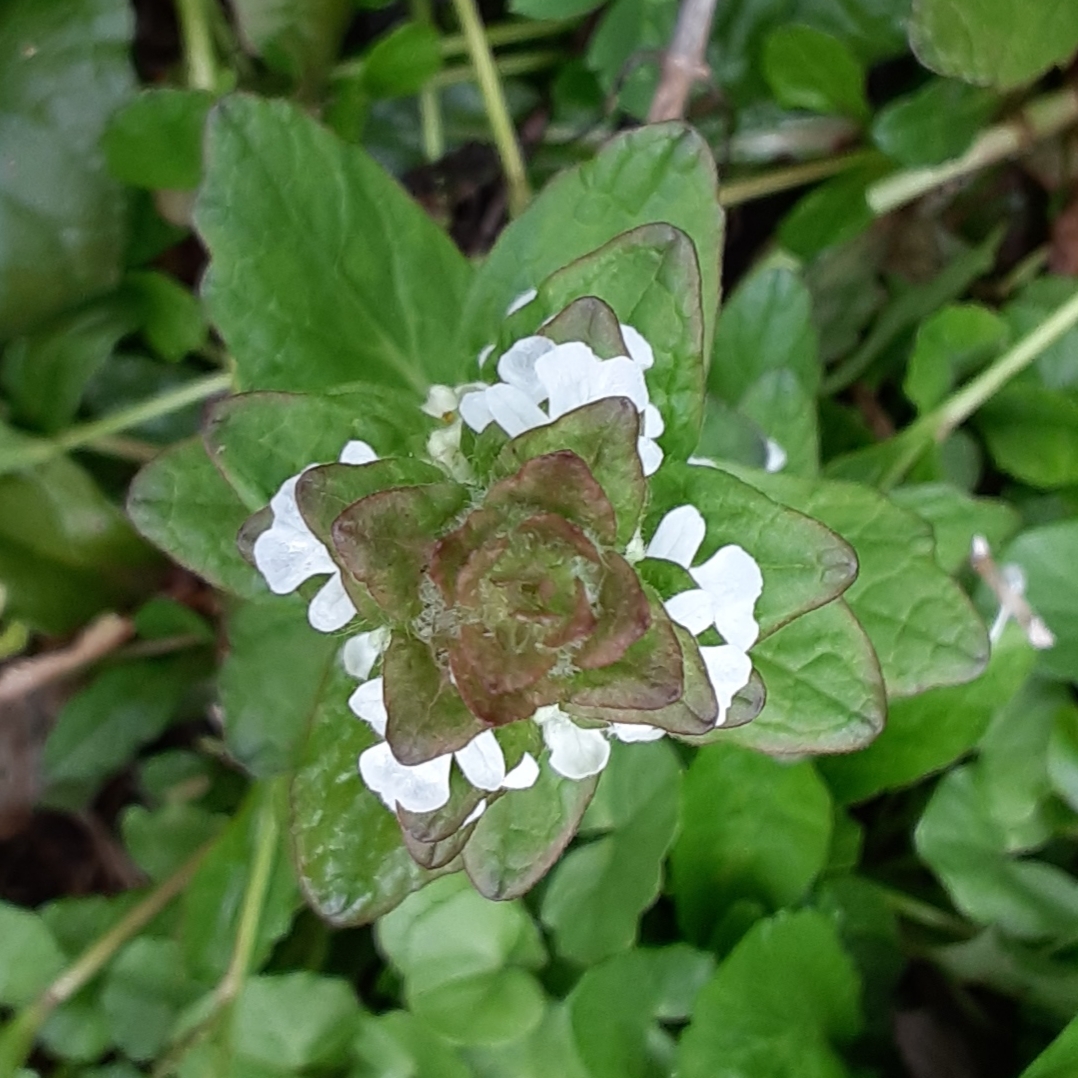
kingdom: Plantae
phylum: Tracheophyta
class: Magnoliopsida
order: Lamiales
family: Lamiaceae
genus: Ajuga
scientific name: Ajuga reptans
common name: Bugle
